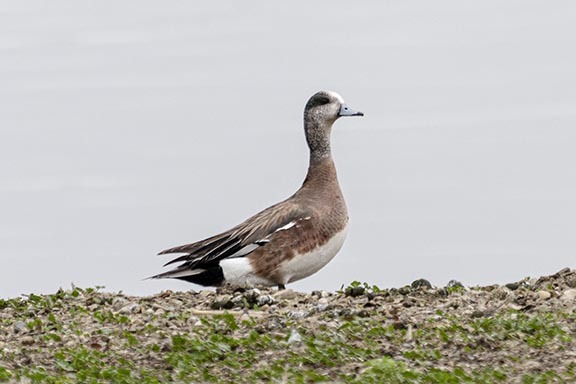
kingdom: Animalia
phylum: Chordata
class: Aves
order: Anseriformes
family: Anatidae
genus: Mareca
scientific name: Mareca americana
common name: American wigeon
